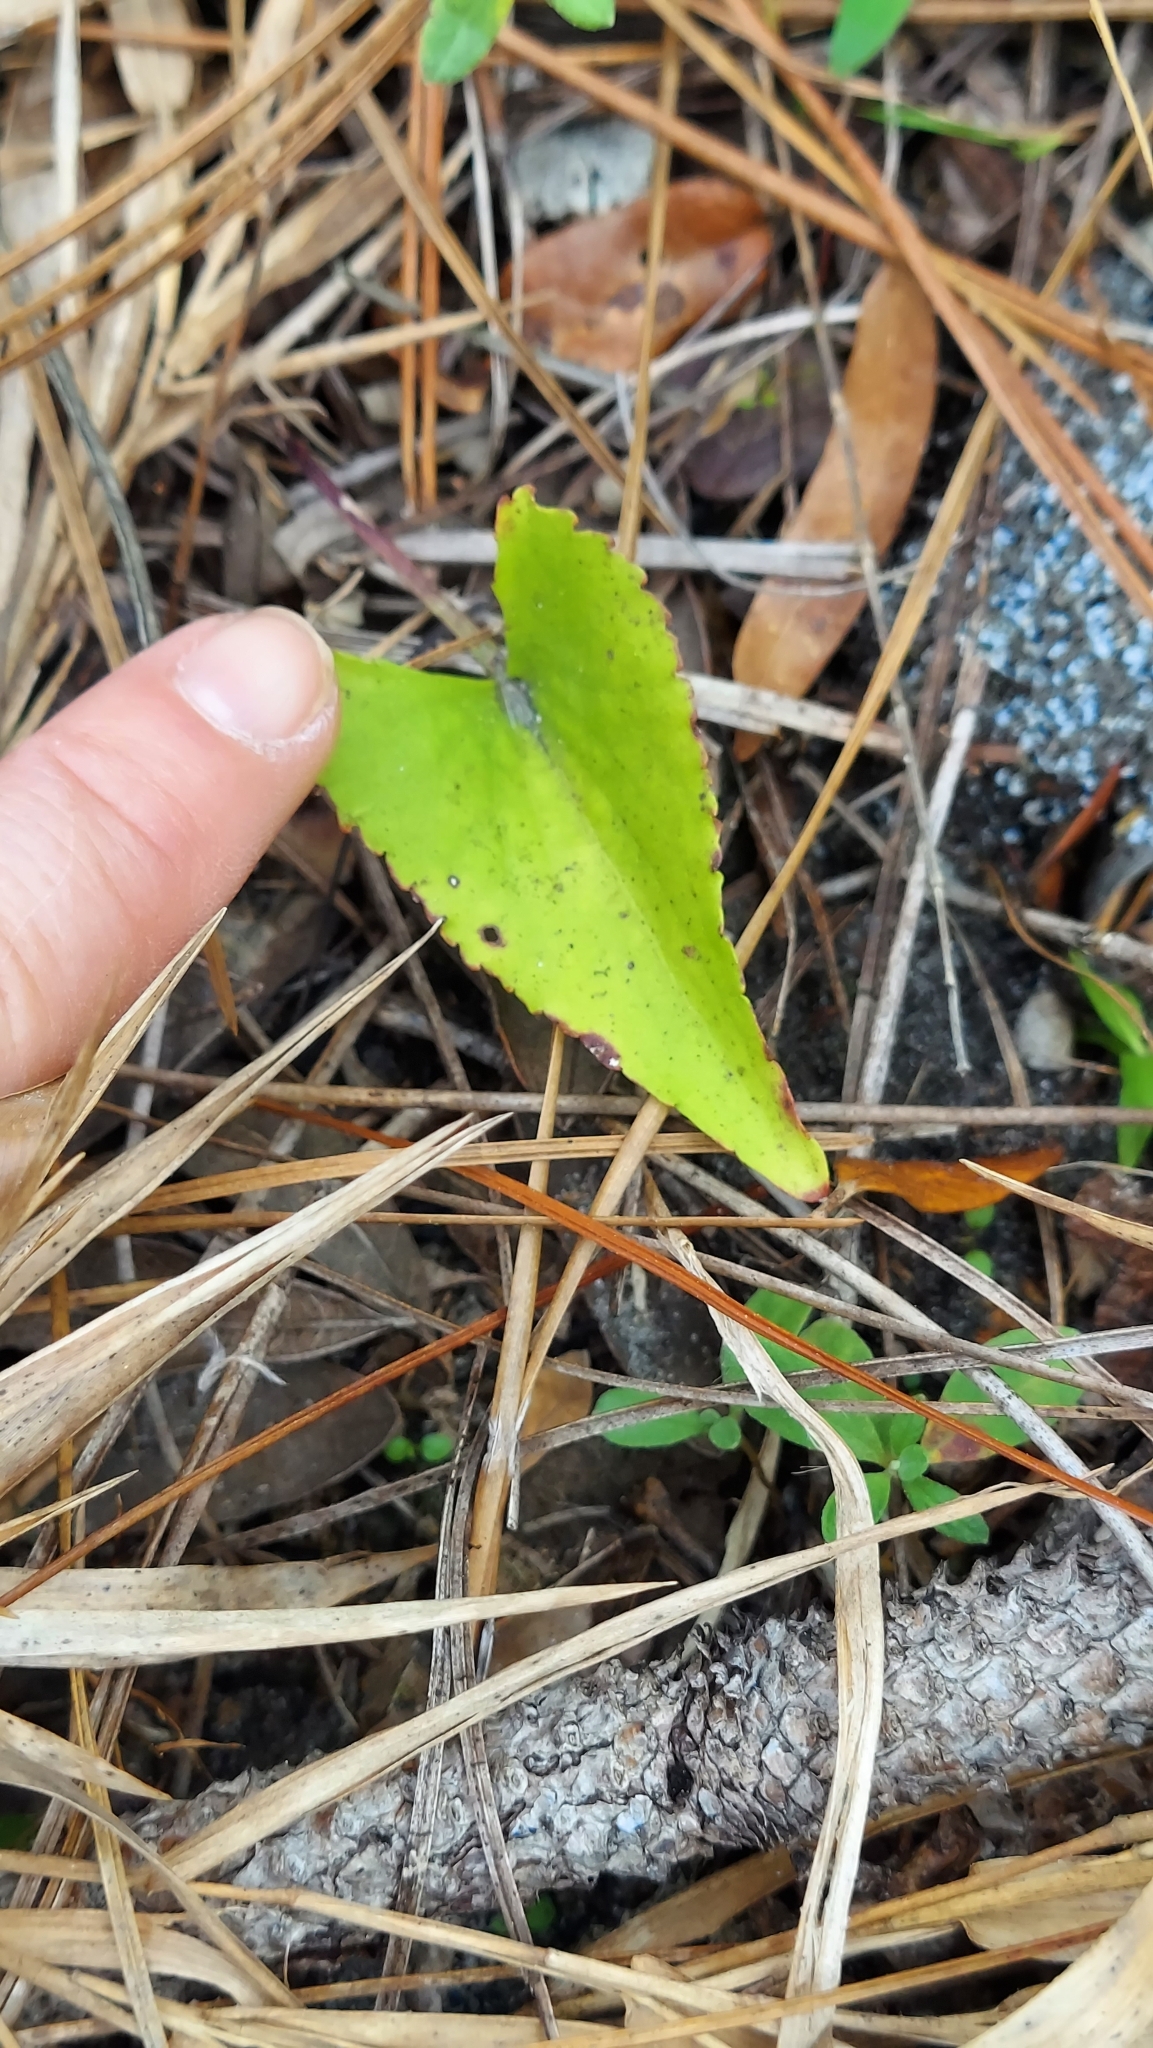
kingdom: Plantae
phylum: Tracheophyta
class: Magnoliopsida
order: Malpighiales
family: Violaceae
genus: Viola
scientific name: Viola septemloba
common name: Southern coast violet
